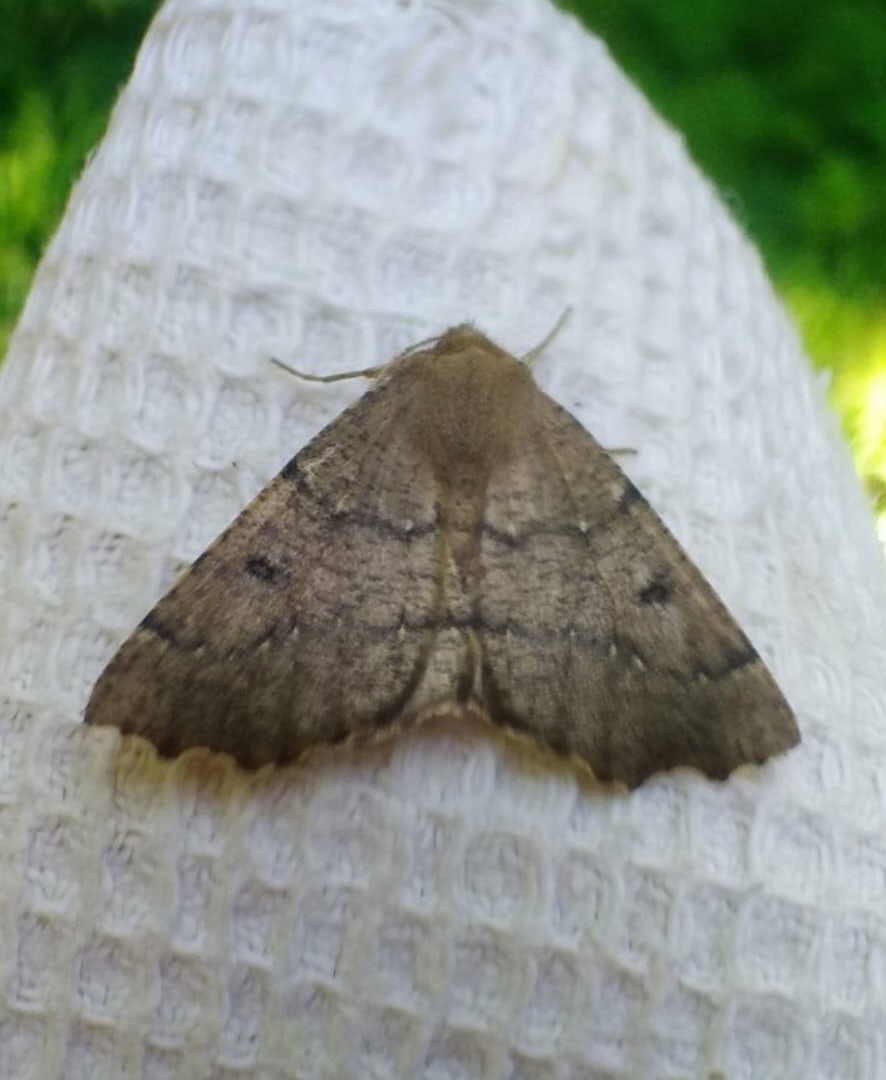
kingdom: Animalia
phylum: Arthropoda
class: Insecta
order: Lepidoptera
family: Geometridae
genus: Odontopera
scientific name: Odontopera bidentata
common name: Scalloped hazel
